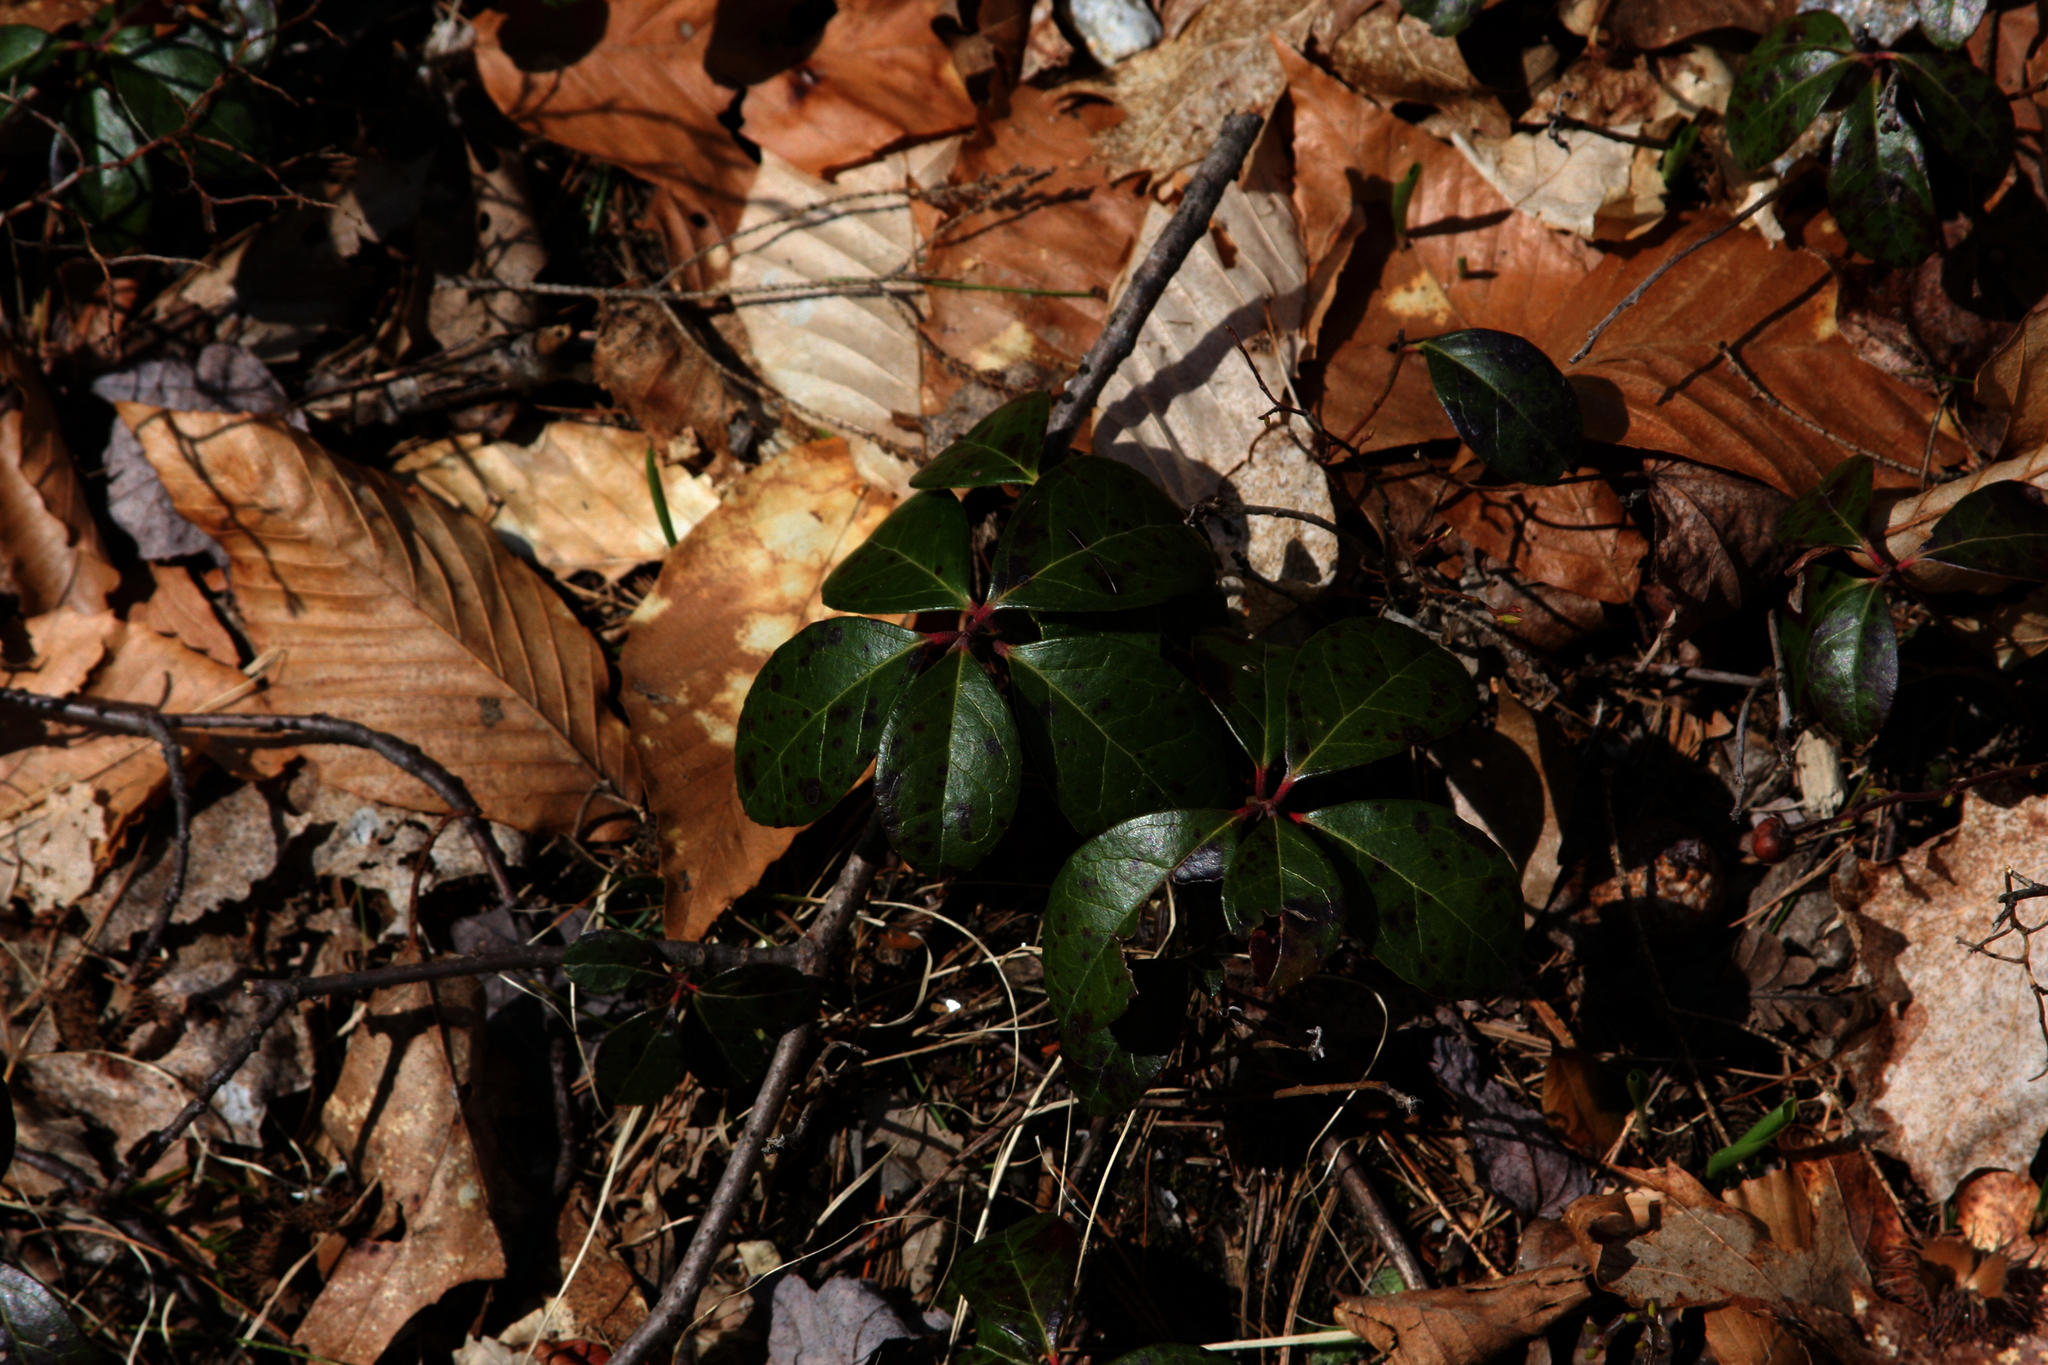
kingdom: Plantae
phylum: Tracheophyta
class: Magnoliopsida
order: Ericales
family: Ericaceae
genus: Gaultheria
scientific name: Gaultheria procumbens
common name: Checkerberry
